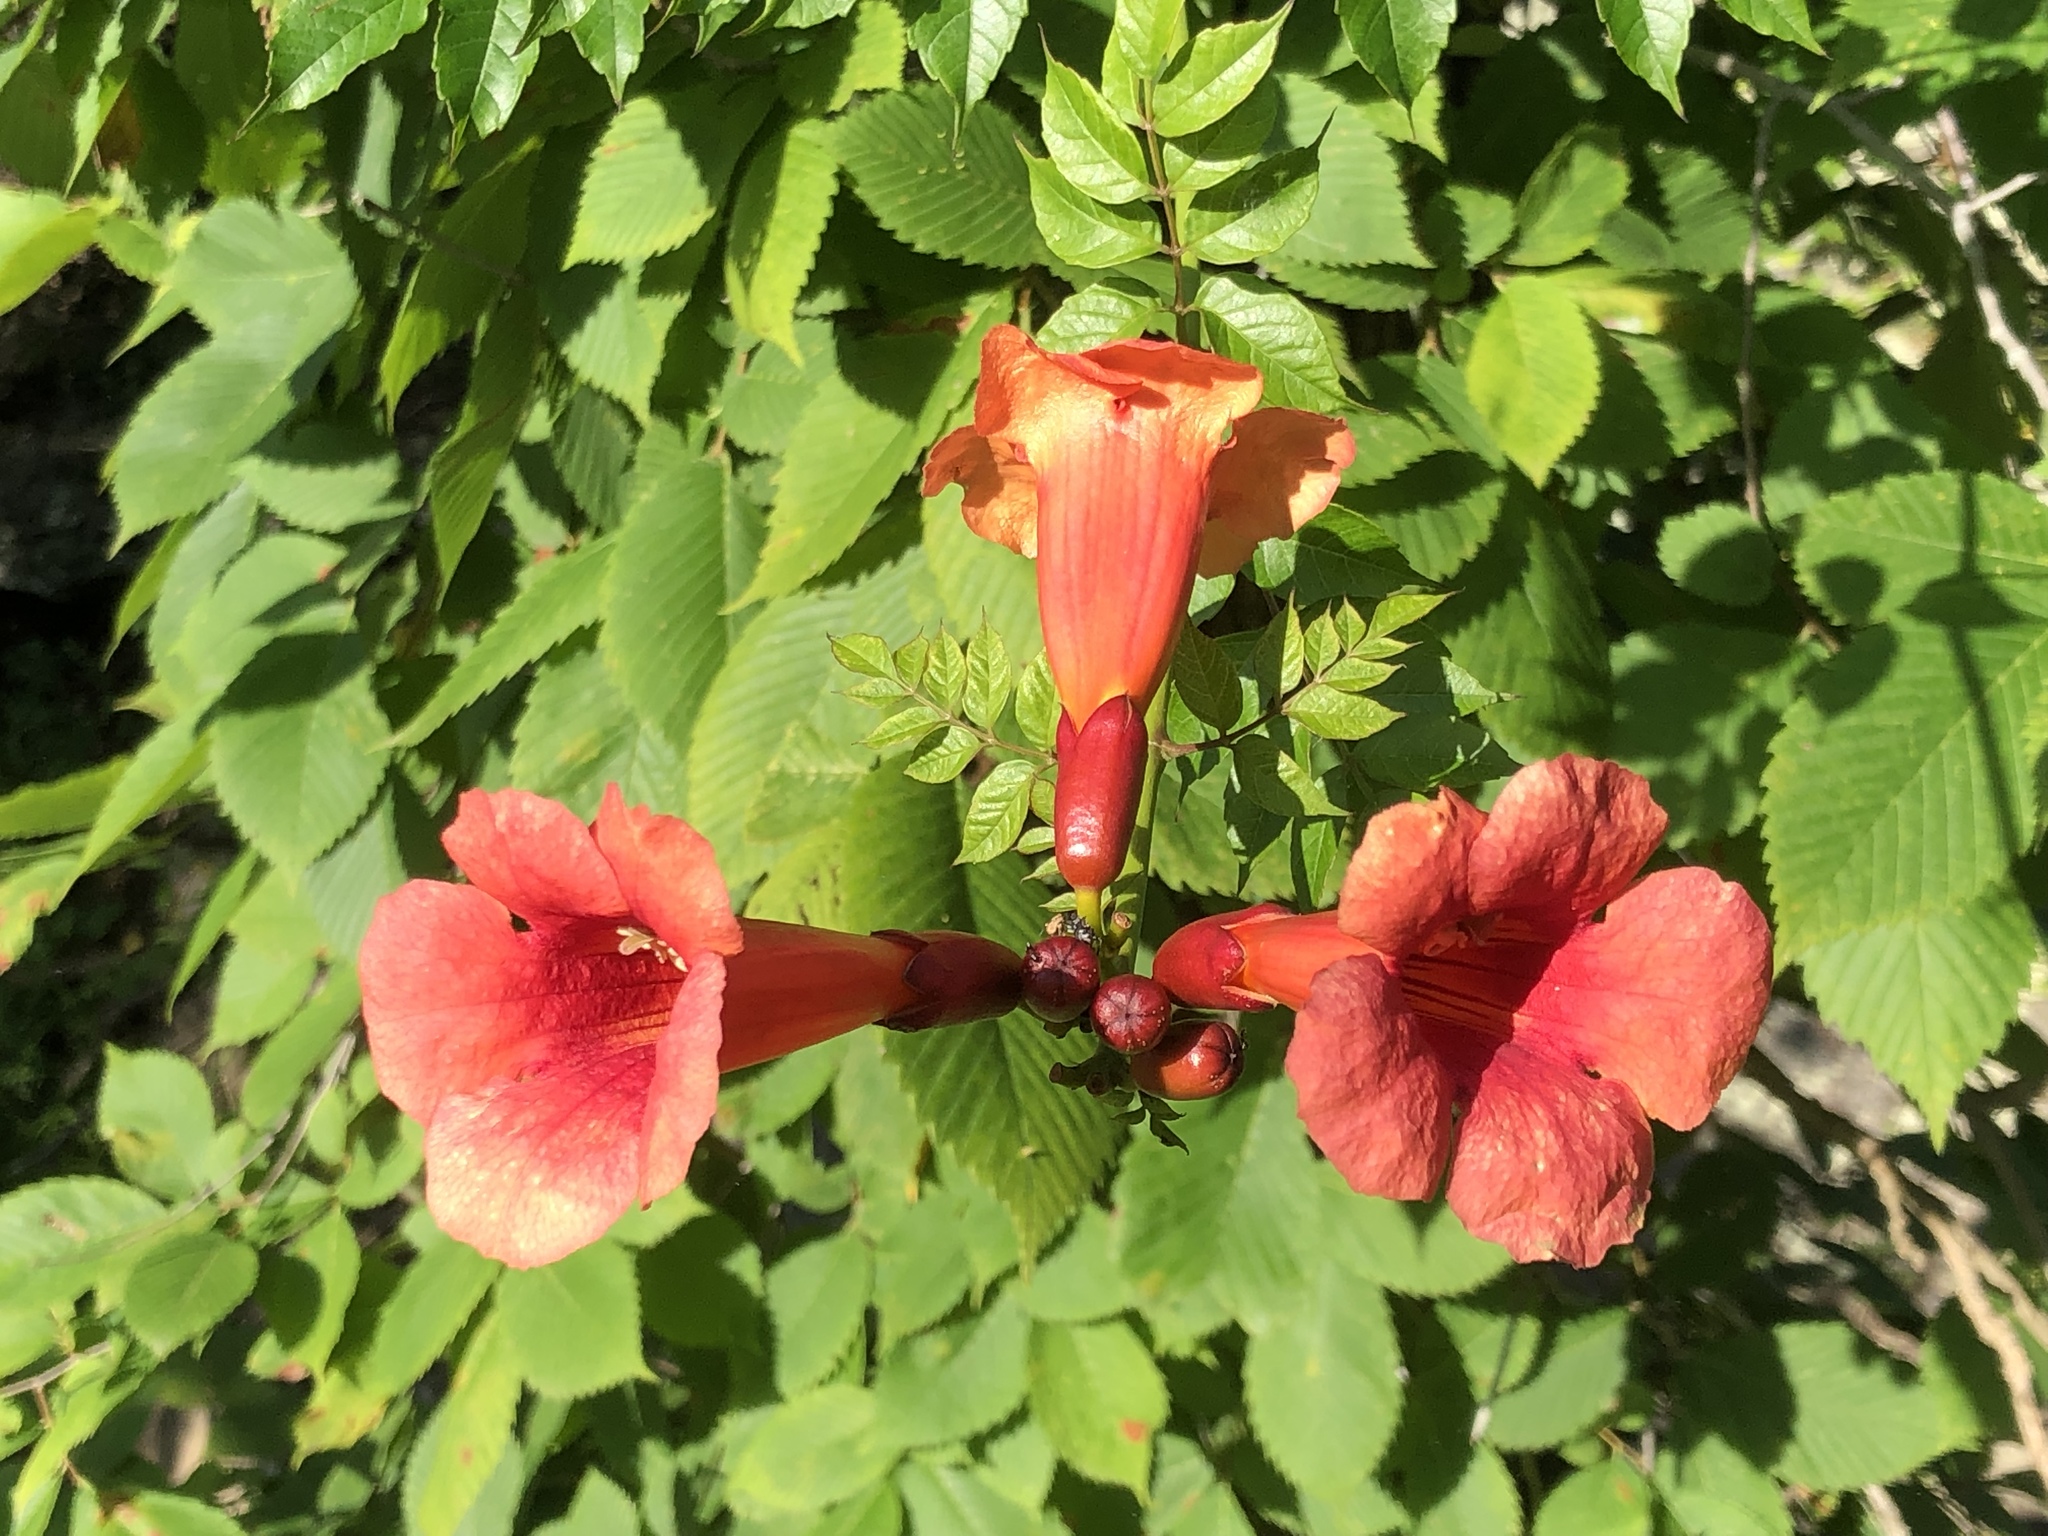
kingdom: Plantae
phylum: Tracheophyta
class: Magnoliopsida
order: Lamiales
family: Bignoniaceae
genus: Campsis
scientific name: Campsis radicans
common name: Trumpet-creeper
